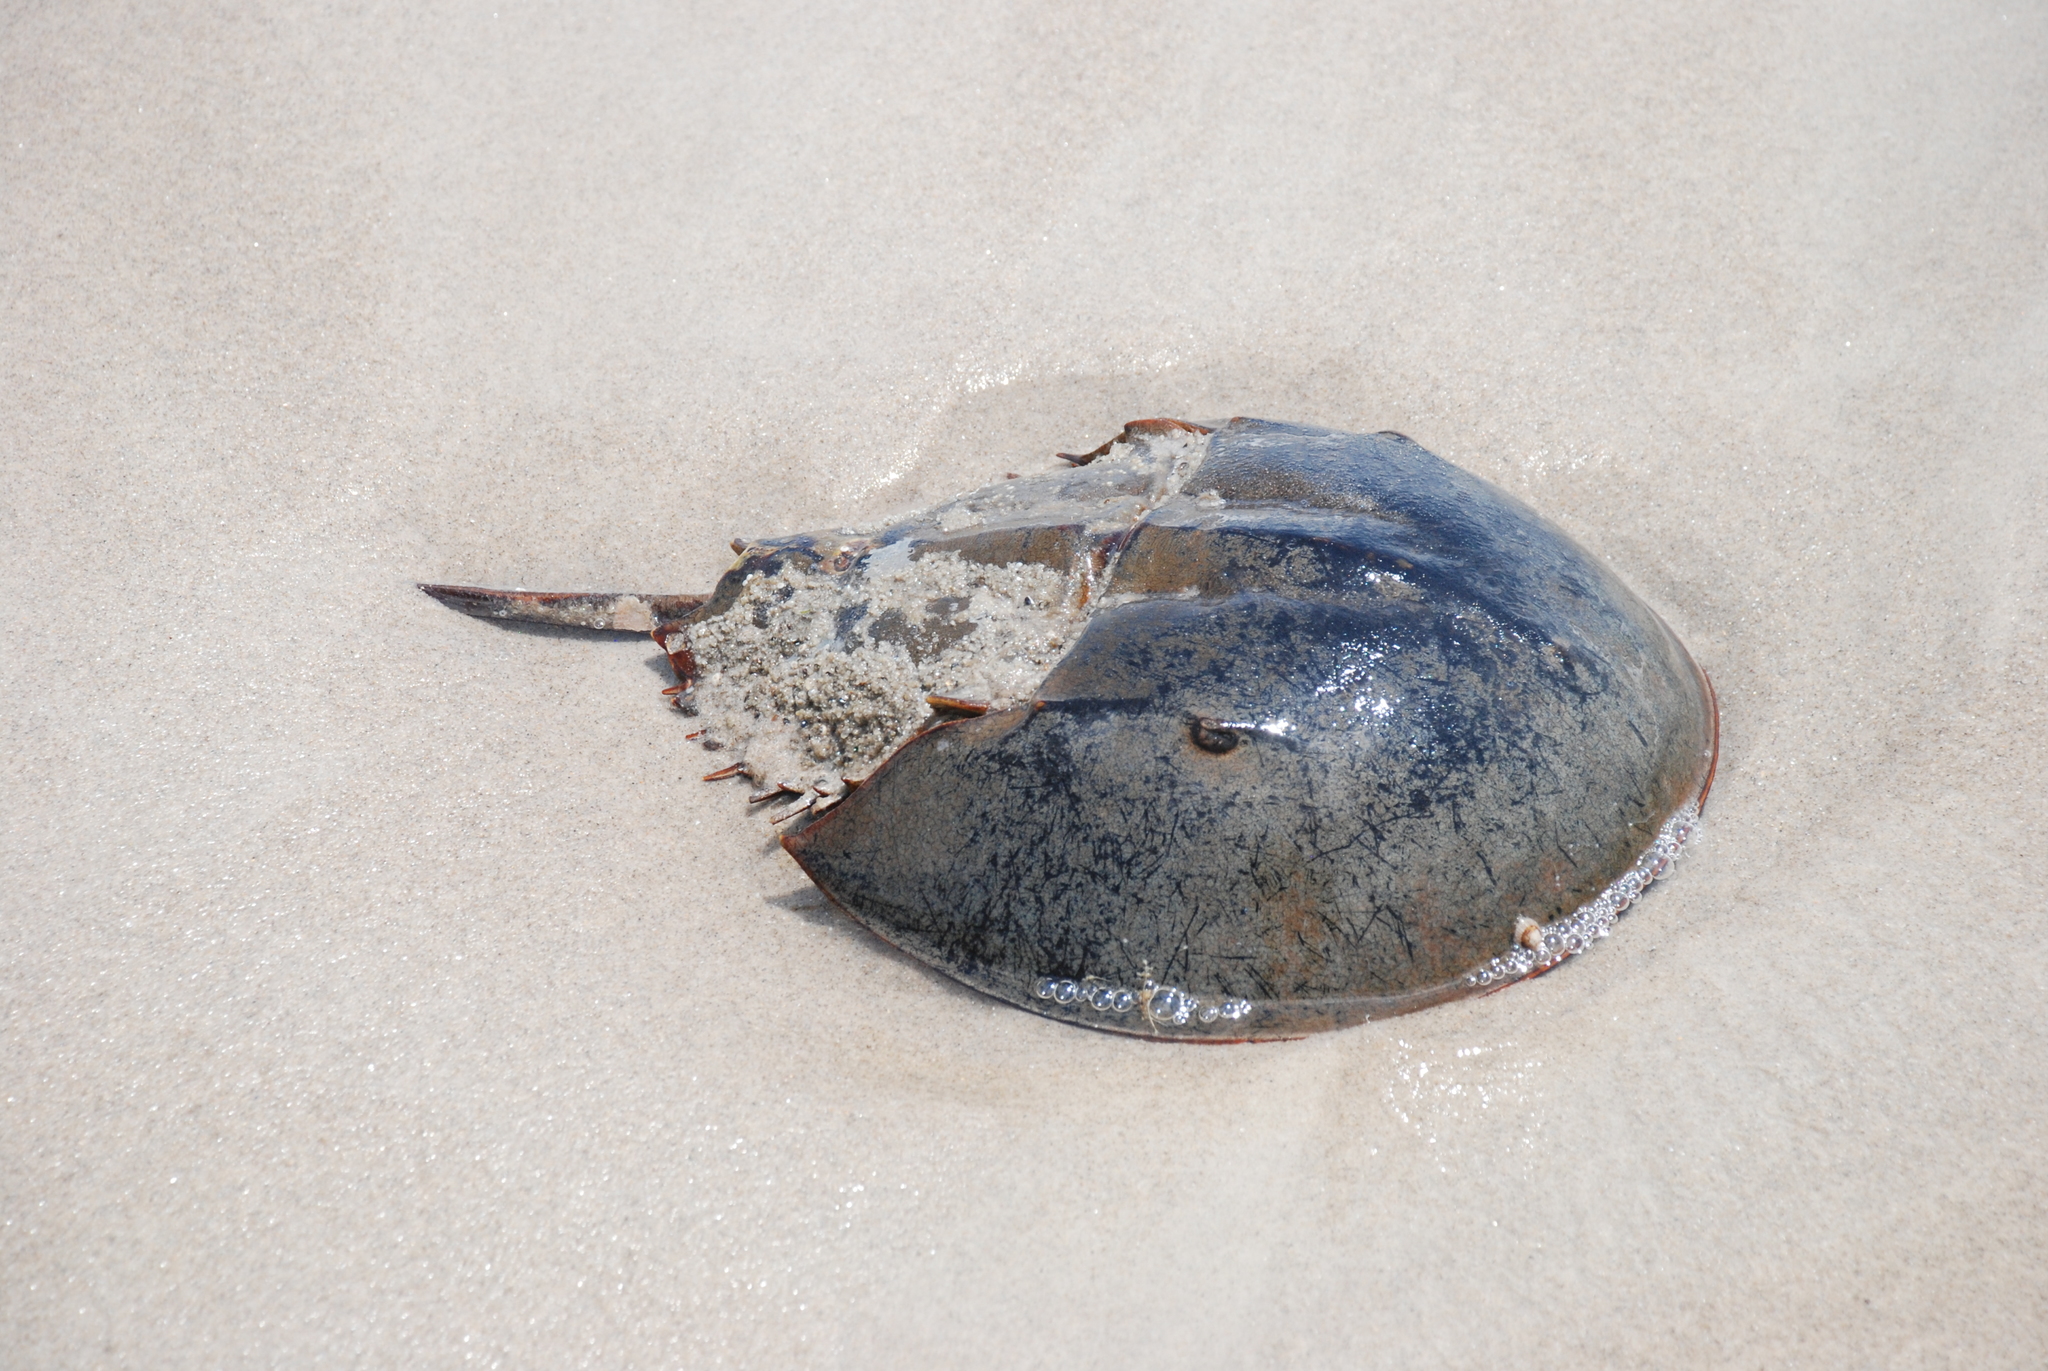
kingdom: Animalia
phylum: Arthropoda
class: Merostomata
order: Xiphosurida
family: Limulidae
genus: Limulus
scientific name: Limulus polyphemus
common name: Horseshoe crab
